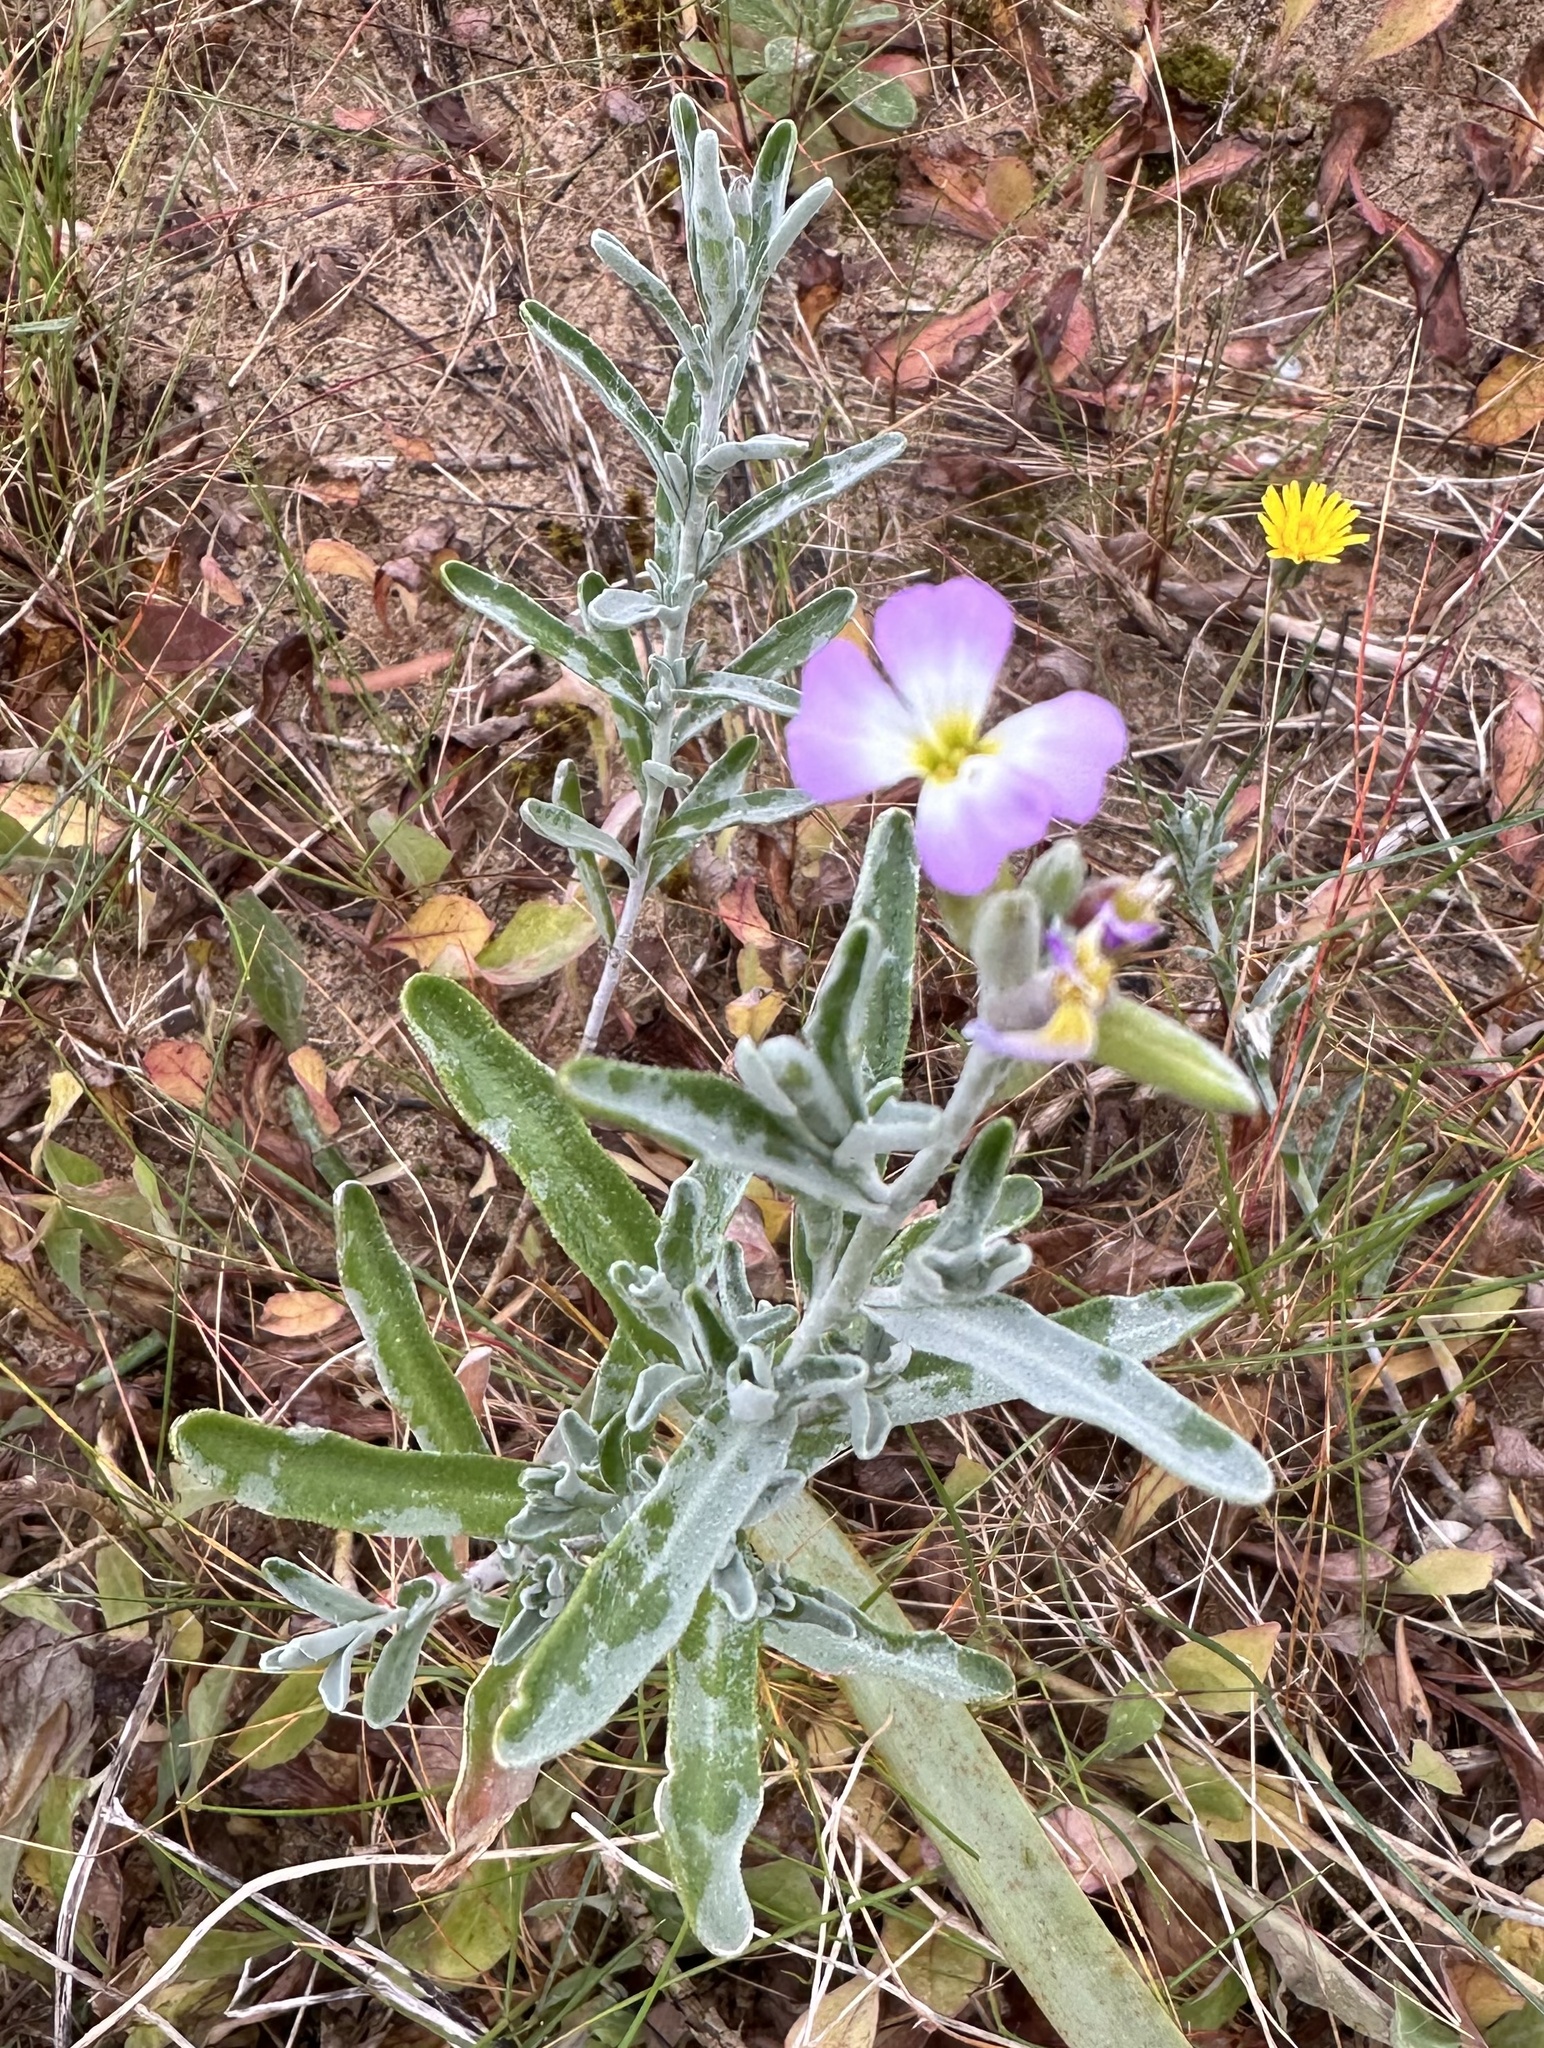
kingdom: Plantae
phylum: Tracheophyta
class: Magnoliopsida
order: Brassicales
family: Brassicaceae
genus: Marcuskochia
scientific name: Marcuskochia littorea
